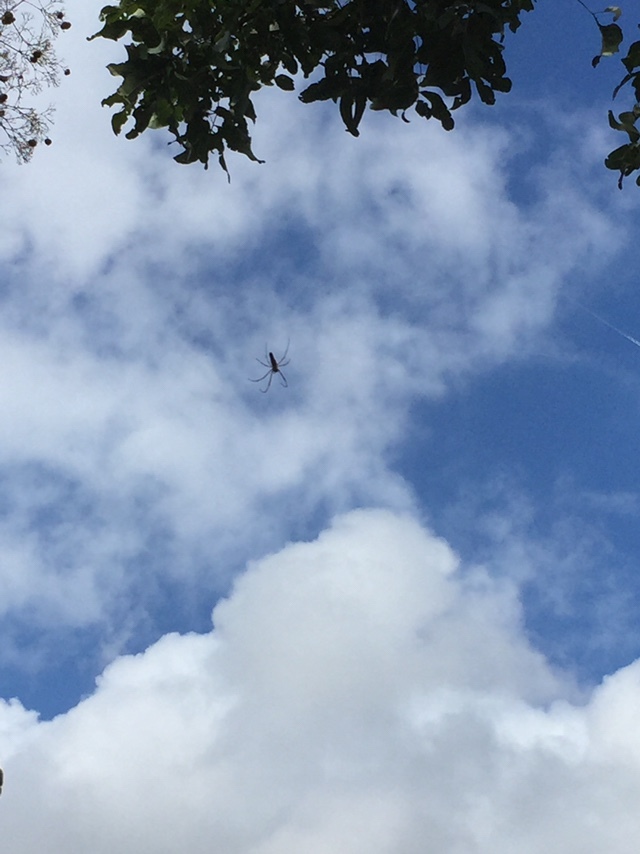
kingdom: Animalia
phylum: Arthropoda
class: Arachnida
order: Araneae
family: Araneidae
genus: Nephila
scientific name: Nephila pilipes
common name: Giant golden orb weaver
